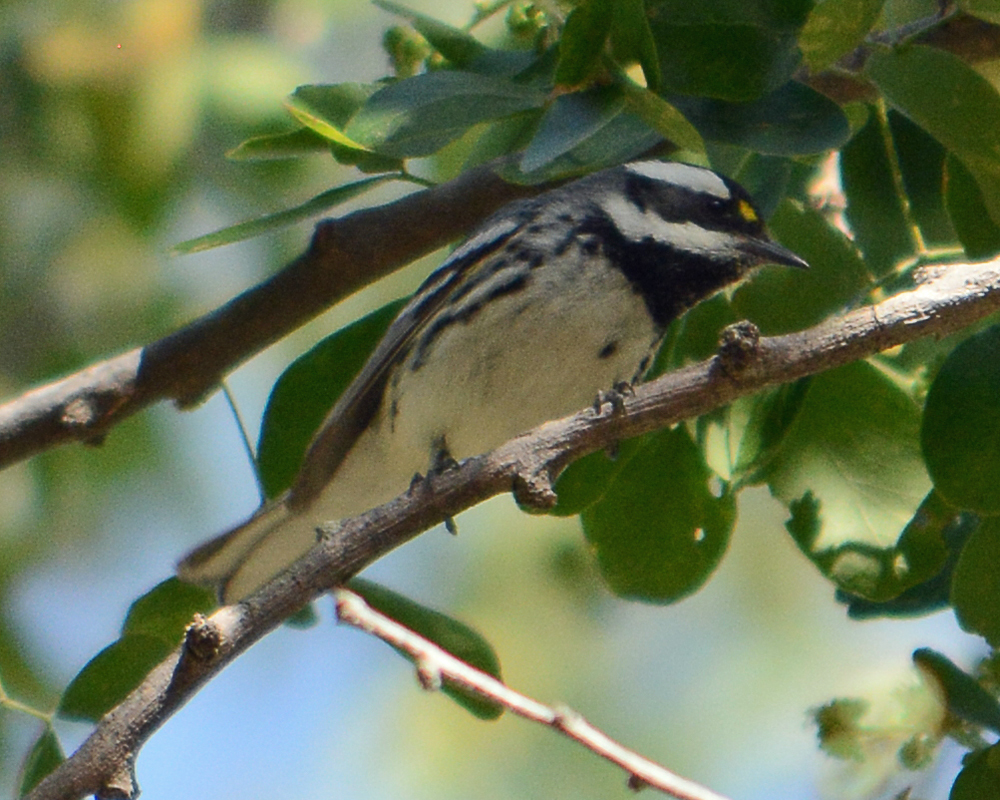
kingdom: Animalia
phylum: Chordata
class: Aves
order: Passeriformes
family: Parulidae
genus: Setophaga
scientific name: Setophaga nigrescens
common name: Black-throated gray warbler
